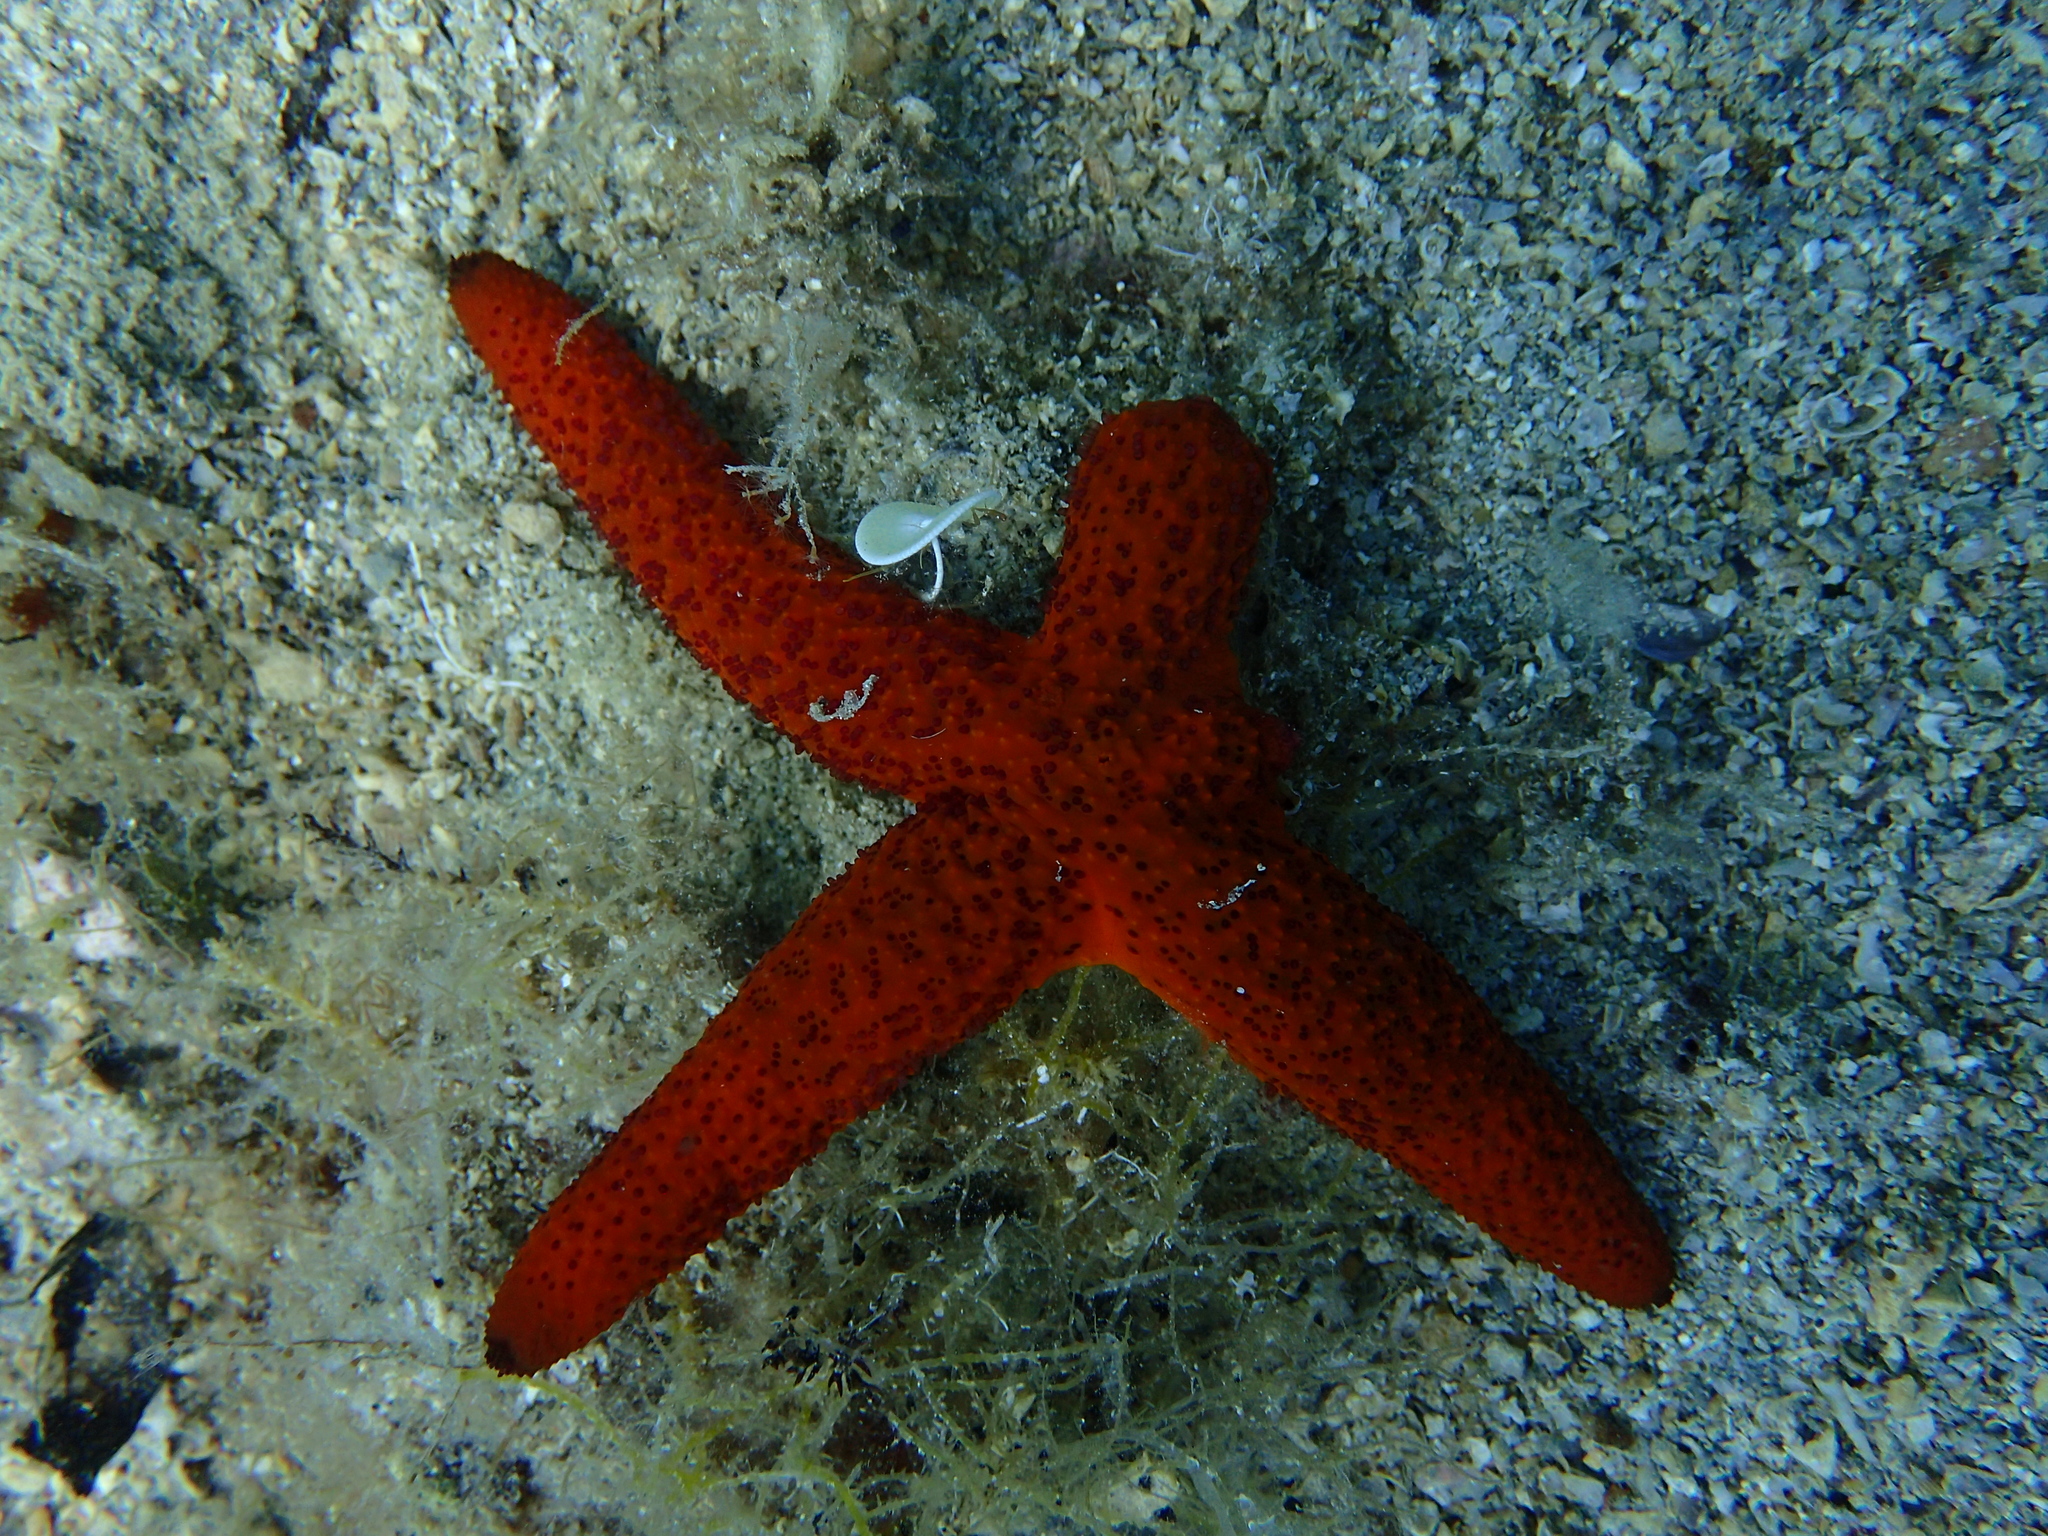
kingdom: Animalia
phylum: Echinodermata
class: Asteroidea
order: Spinulosida
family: Echinasteridae
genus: Echinaster
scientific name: Echinaster sepositus
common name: Red starfish
